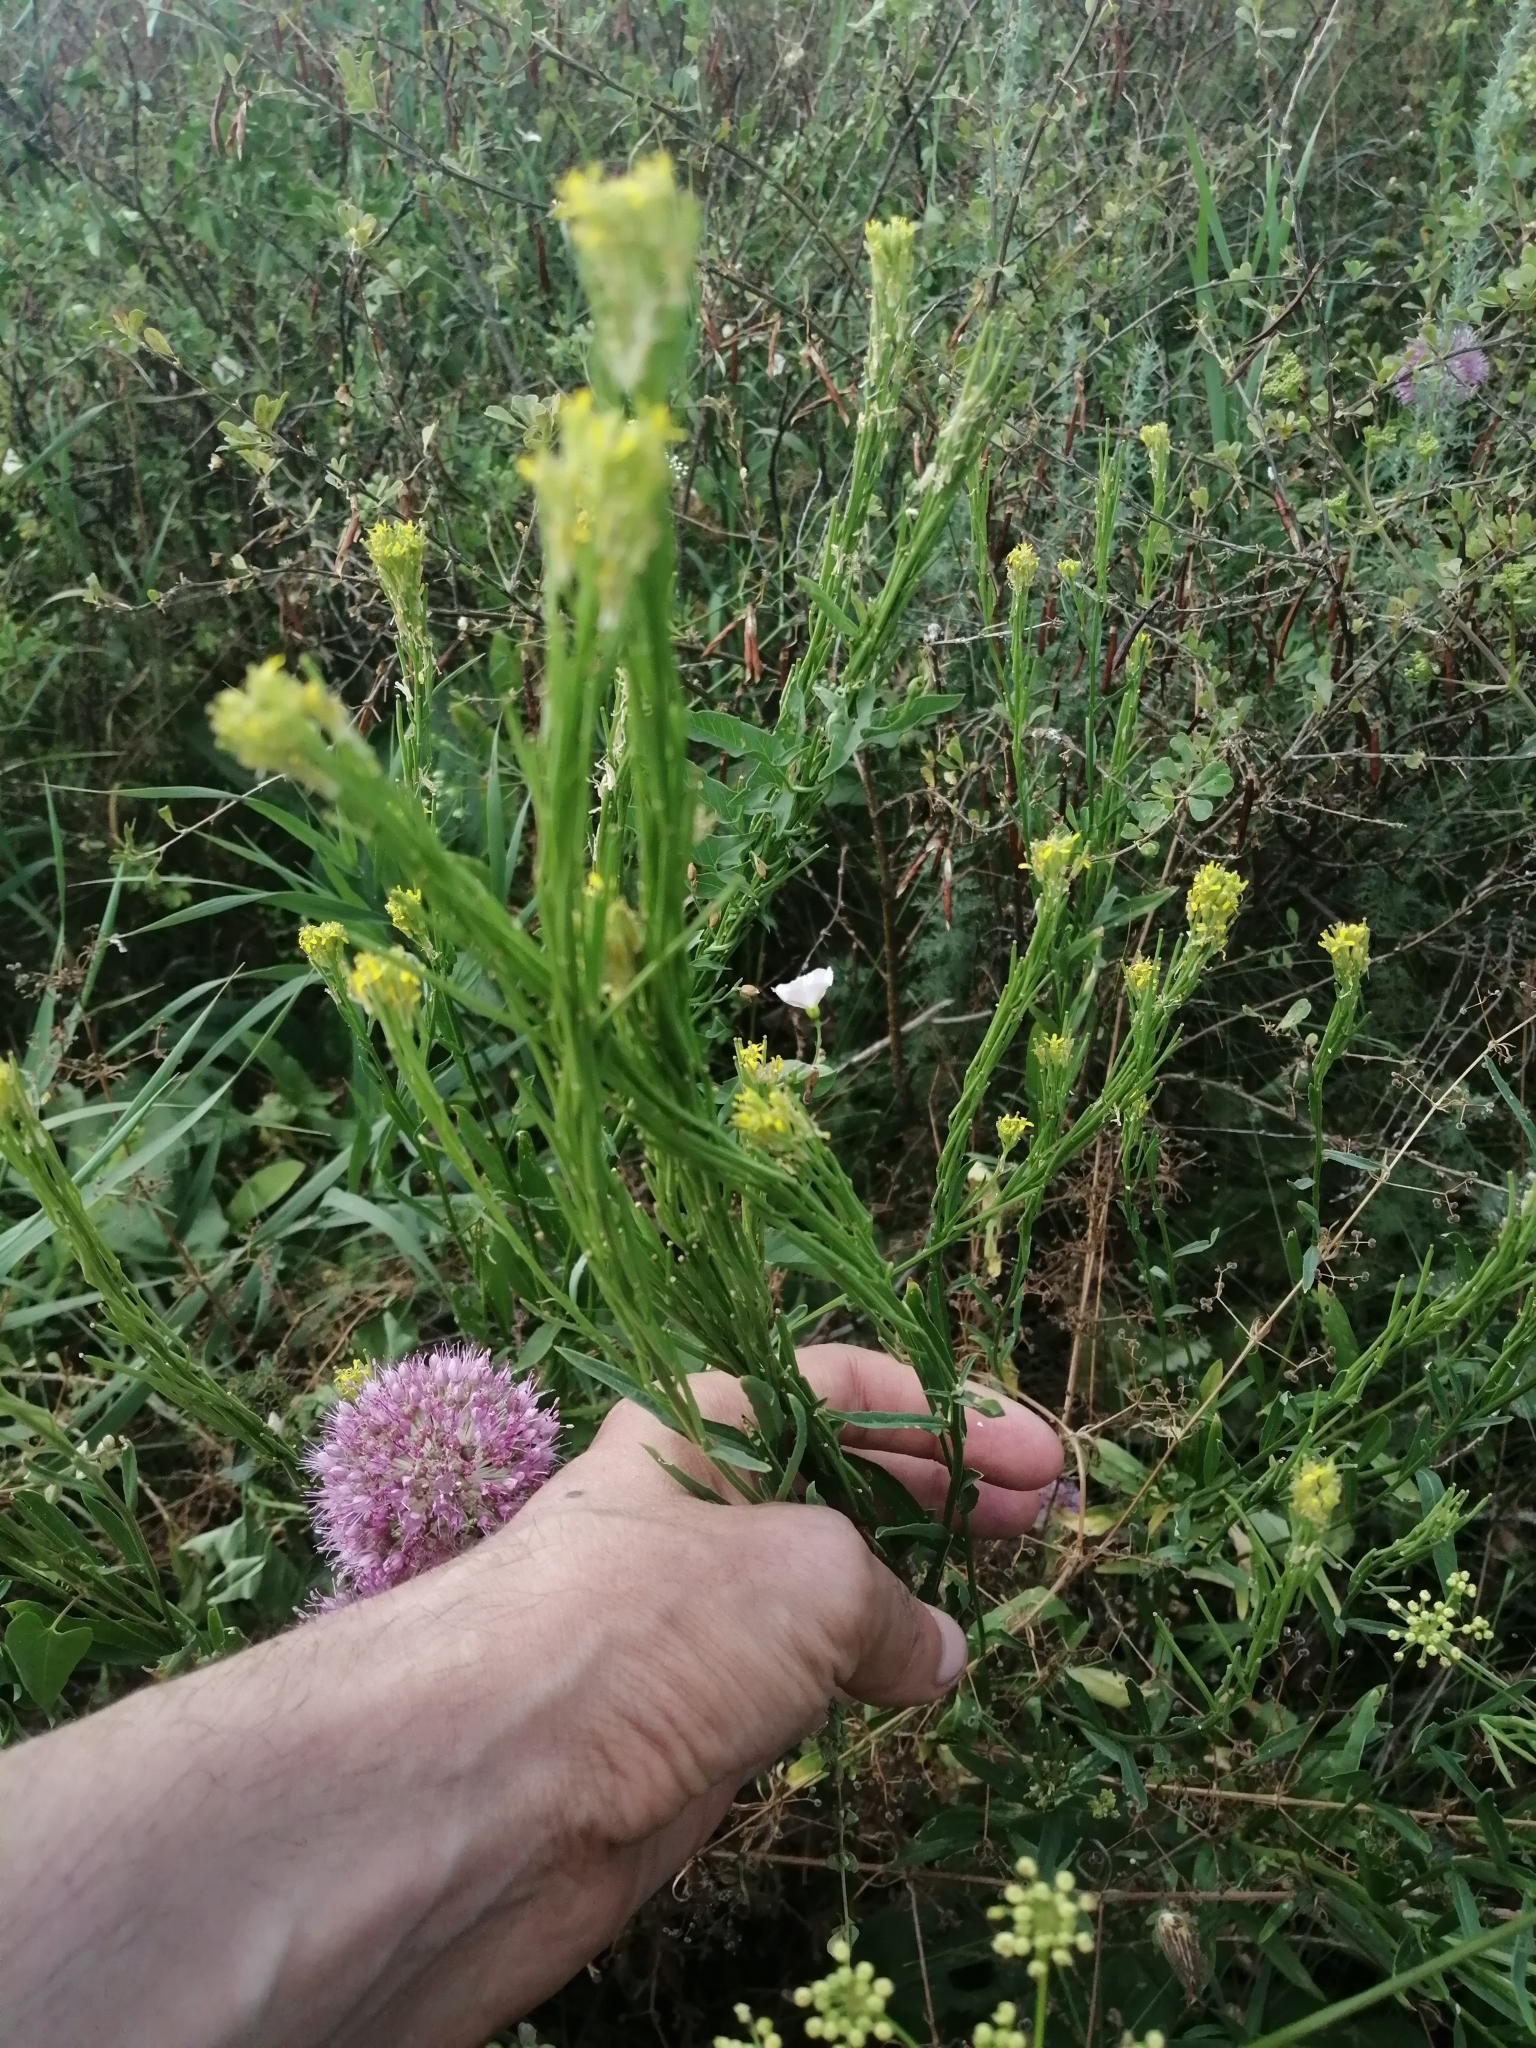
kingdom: Plantae
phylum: Tracheophyta
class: Magnoliopsida
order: Brassicales
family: Brassicaceae
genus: Erysimum
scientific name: Erysimum marschallianum
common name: Hard wallflower
